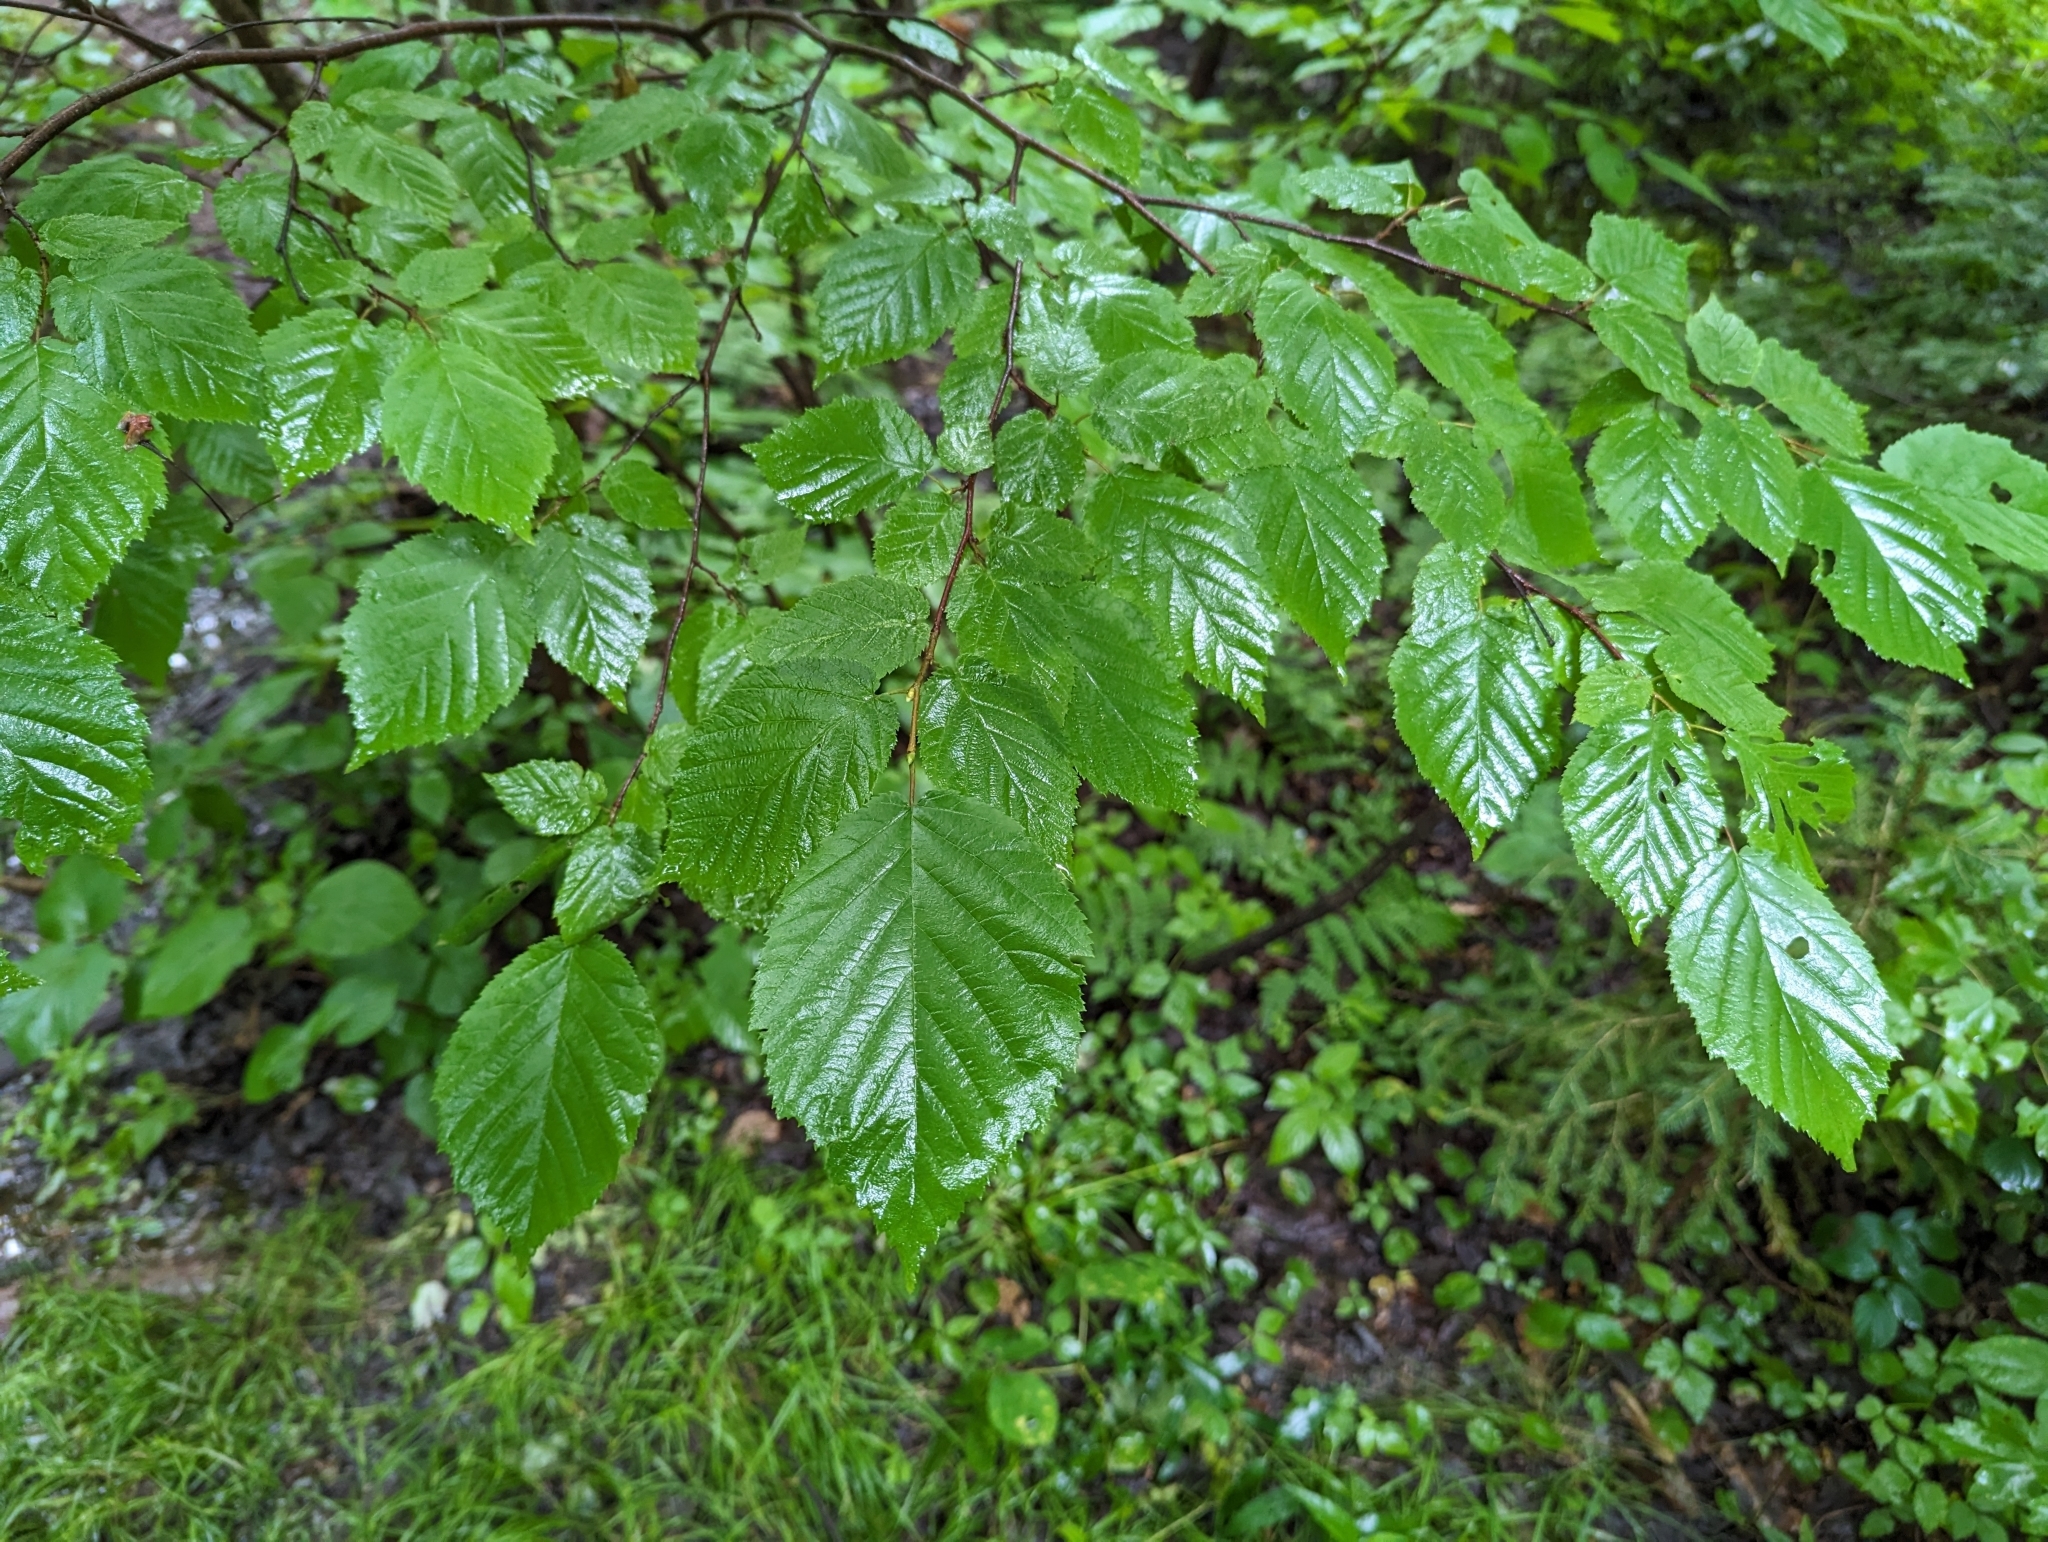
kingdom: Plantae
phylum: Tracheophyta
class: Magnoliopsida
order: Fagales
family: Betulaceae
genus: Corylus
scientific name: Corylus cornuta
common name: Beaked hazel
